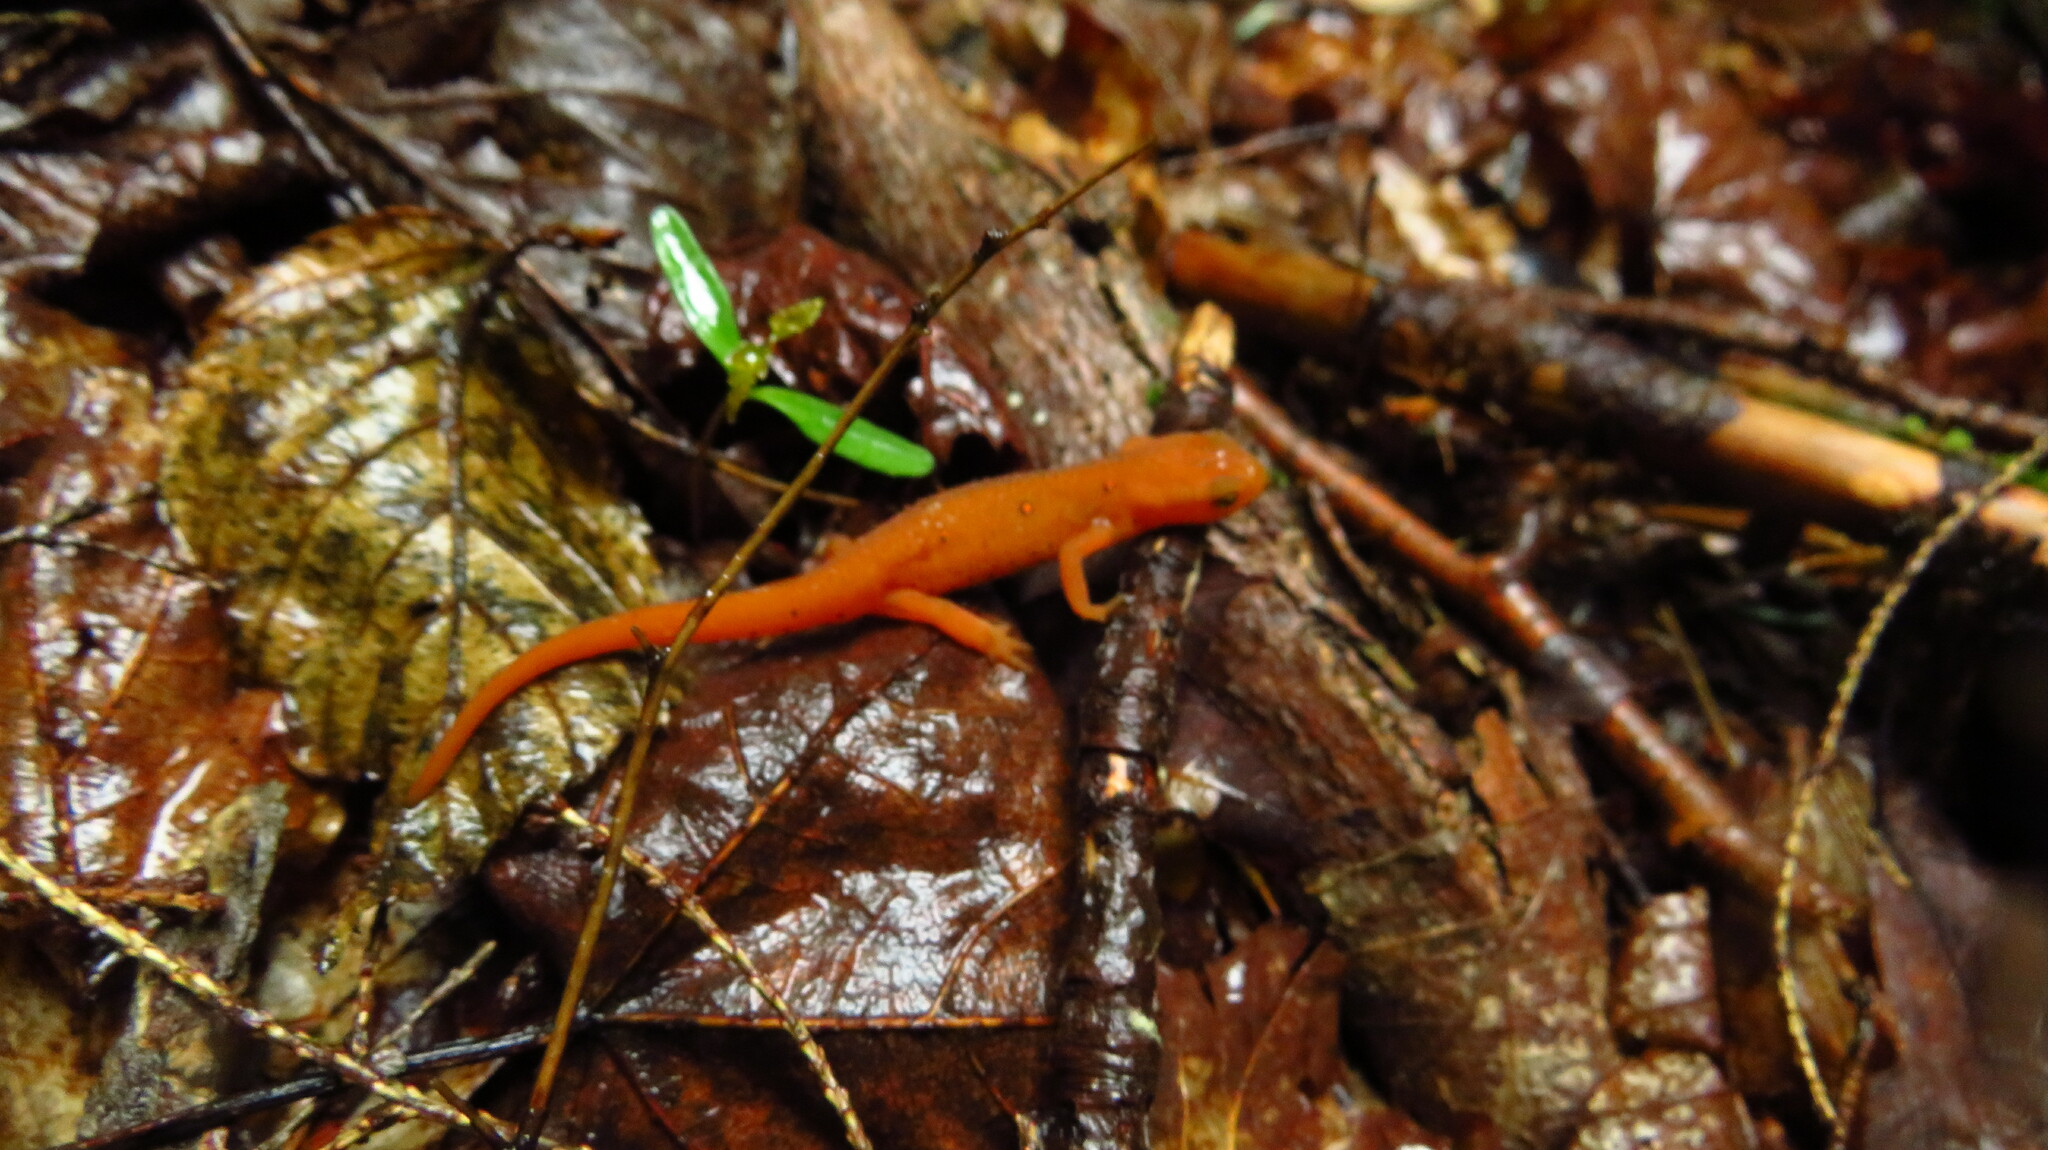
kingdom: Animalia
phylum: Chordata
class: Amphibia
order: Caudata
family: Salamandridae
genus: Notophthalmus
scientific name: Notophthalmus viridescens
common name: Eastern newt
